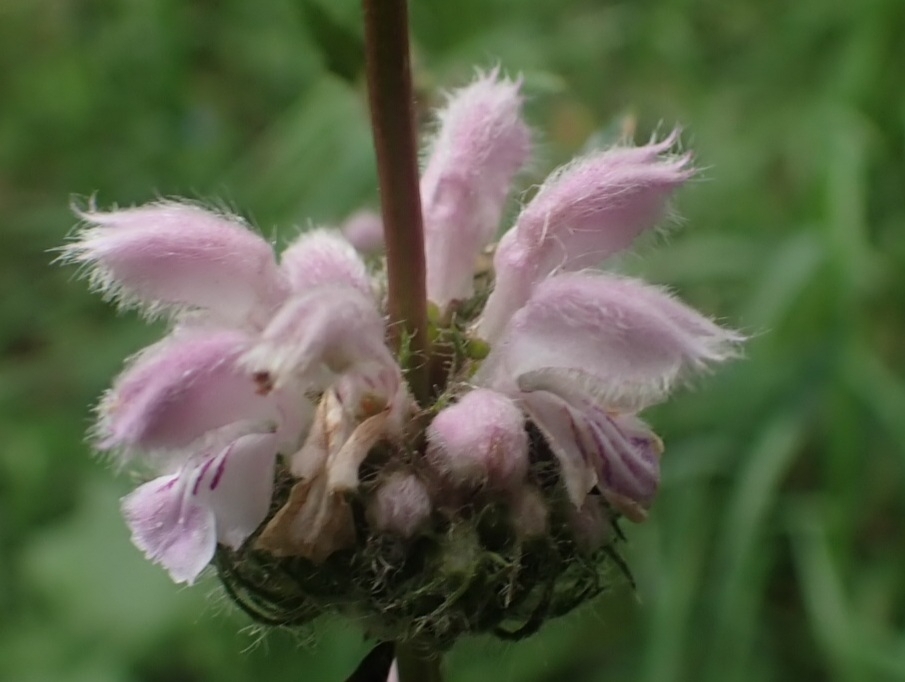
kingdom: Plantae
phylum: Tracheophyta
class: Magnoliopsida
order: Lamiales
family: Lamiaceae
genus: Phlomoides
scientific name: Phlomoides tuberosa
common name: Tuberous jerusalem sage
